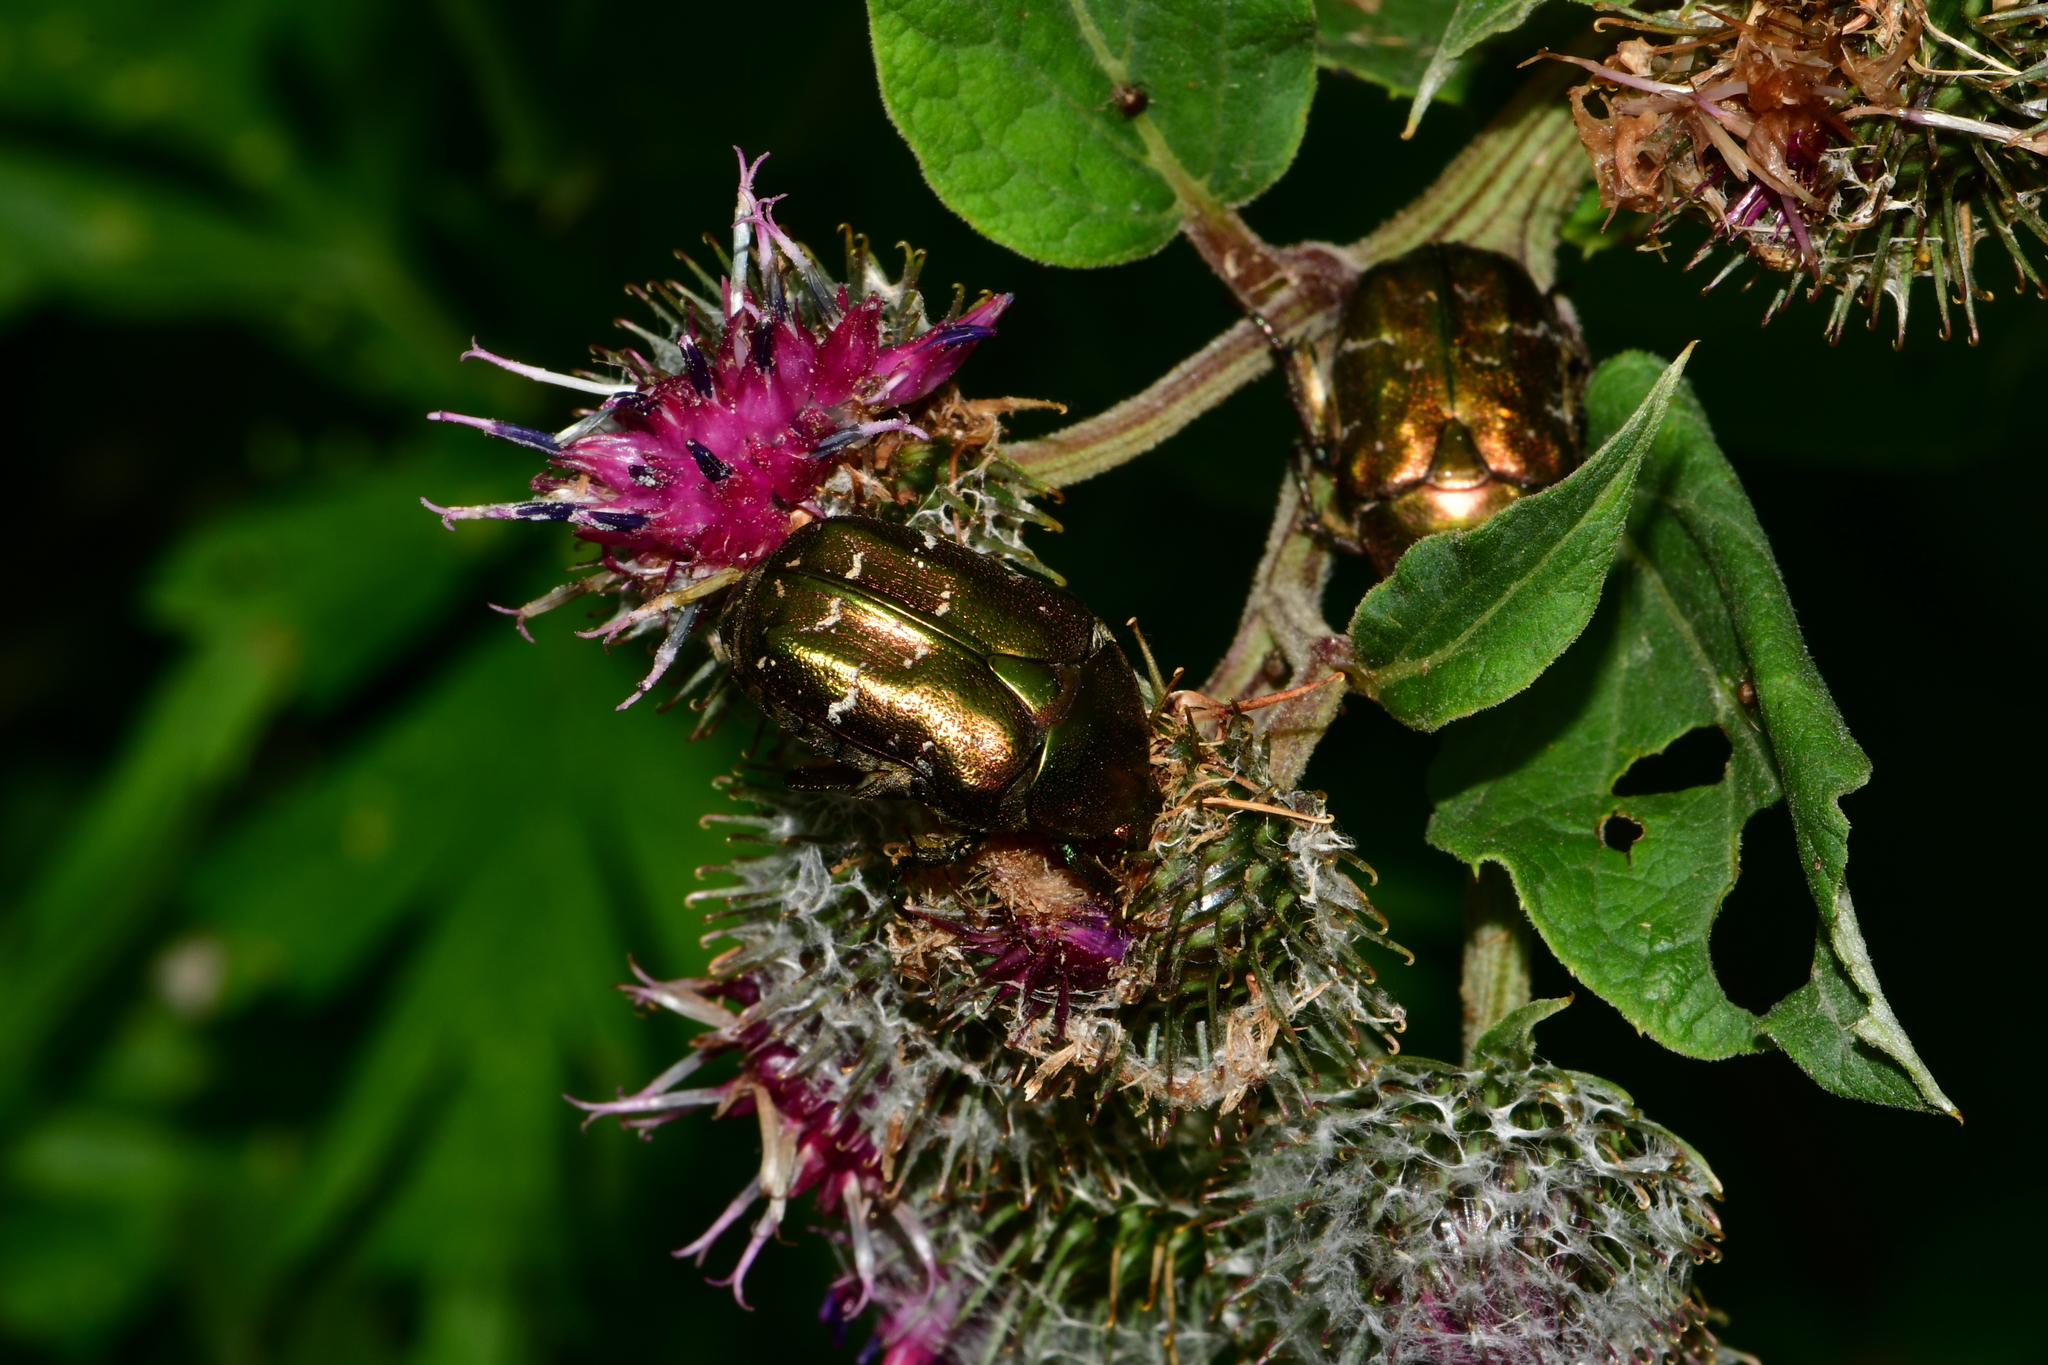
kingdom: Animalia
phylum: Arthropoda
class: Insecta
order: Coleoptera
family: Scarabaeidae
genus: Protaetia
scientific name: Protaetia cuprea
